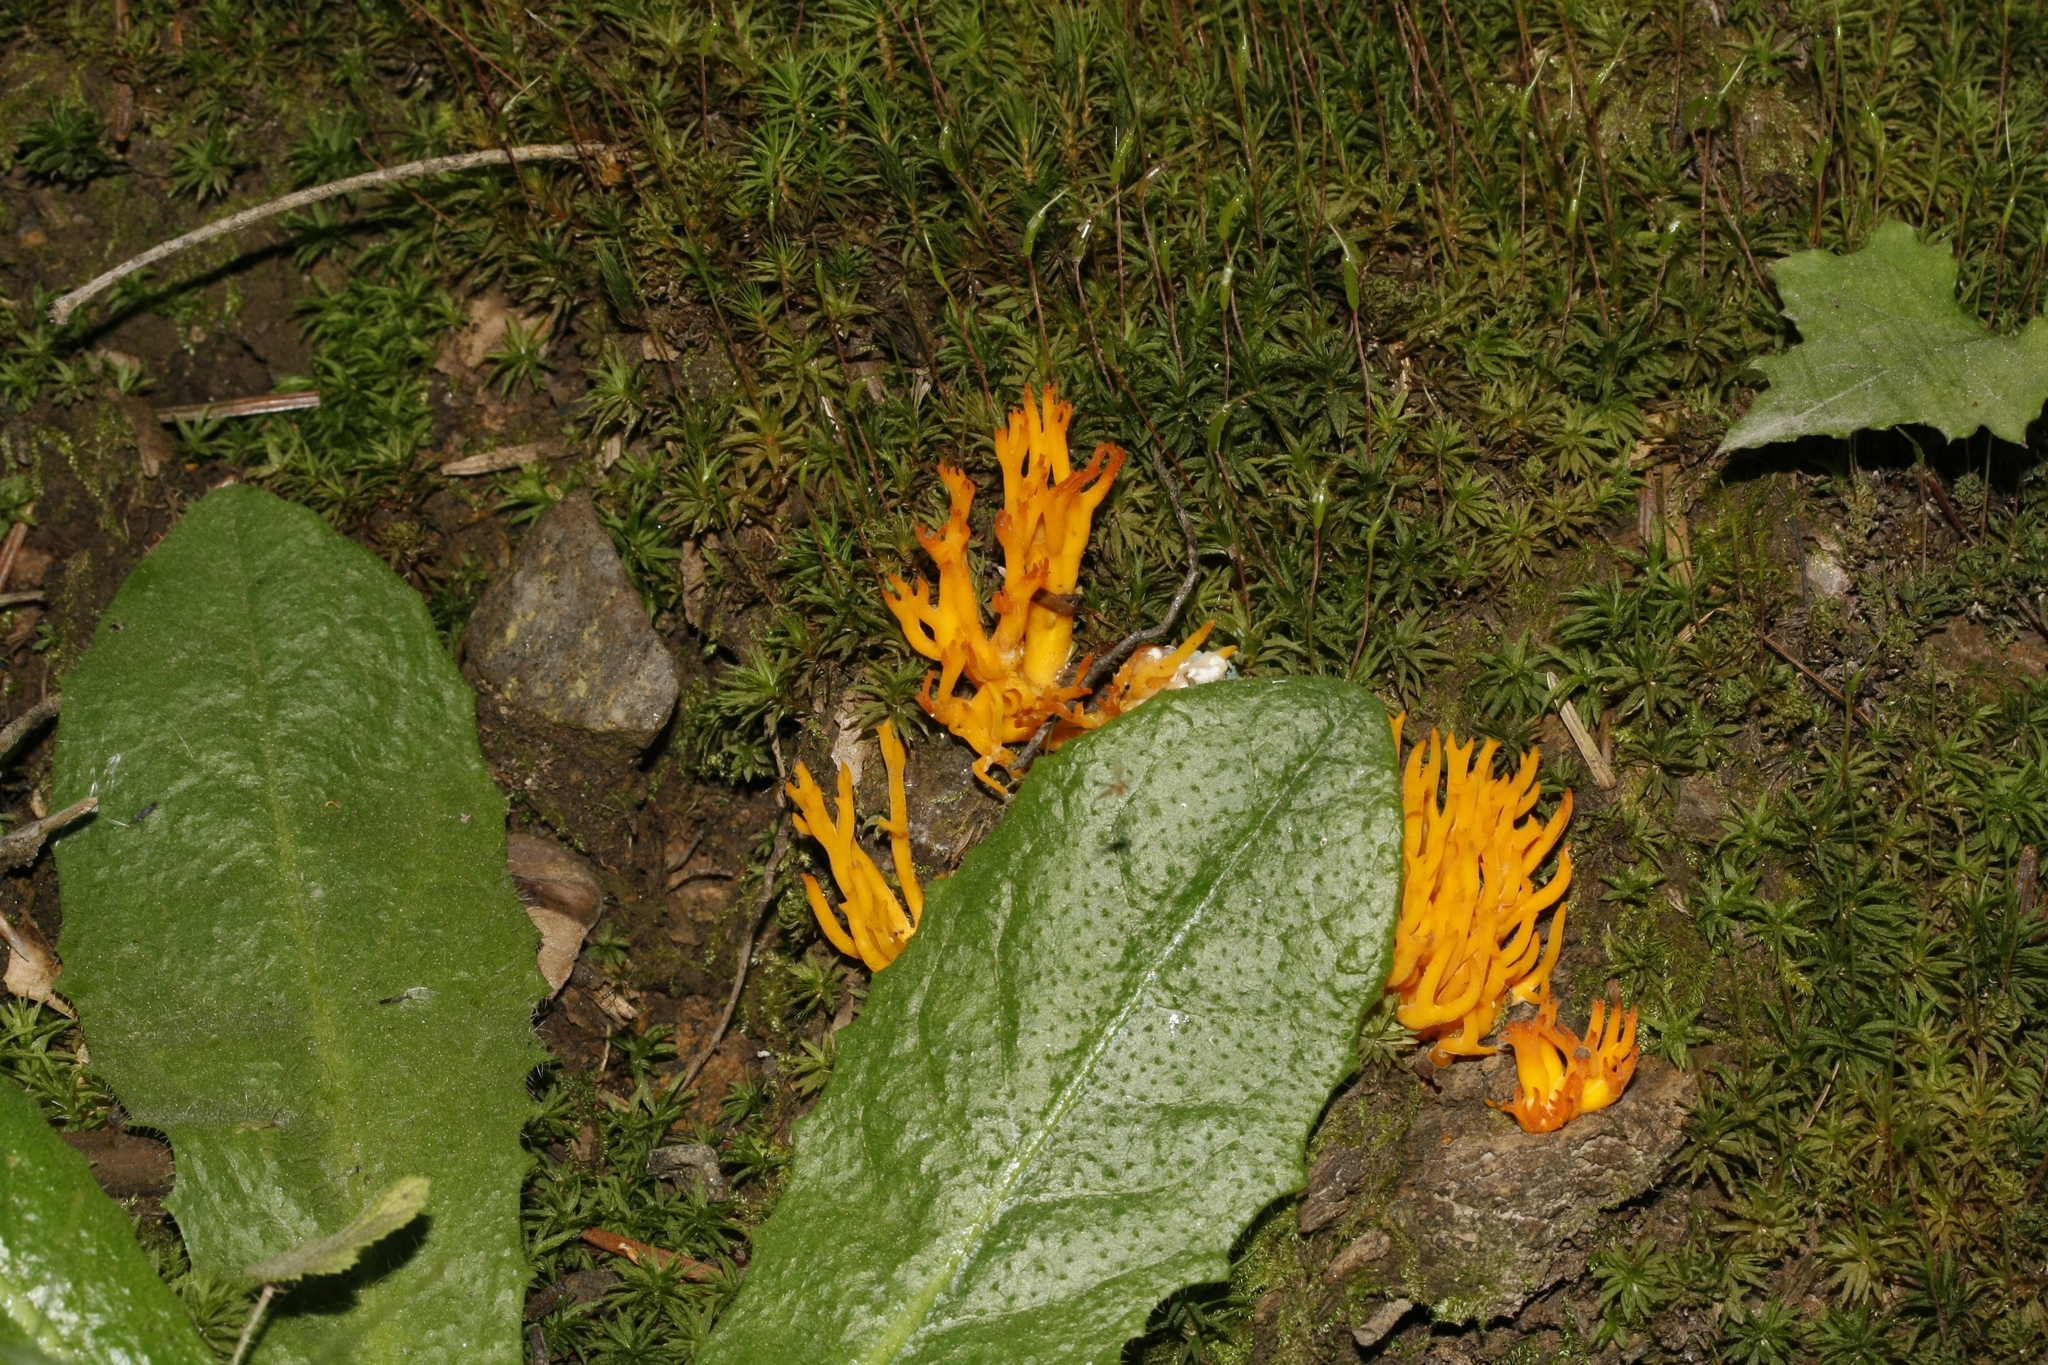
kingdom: Fungi
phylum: Basidiomycota
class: Dacrymycetes
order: Dacrymycetales
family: Dacrymycetaceae
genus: Calocera
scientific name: Calocera viscosa
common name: Yellow stagshorn
